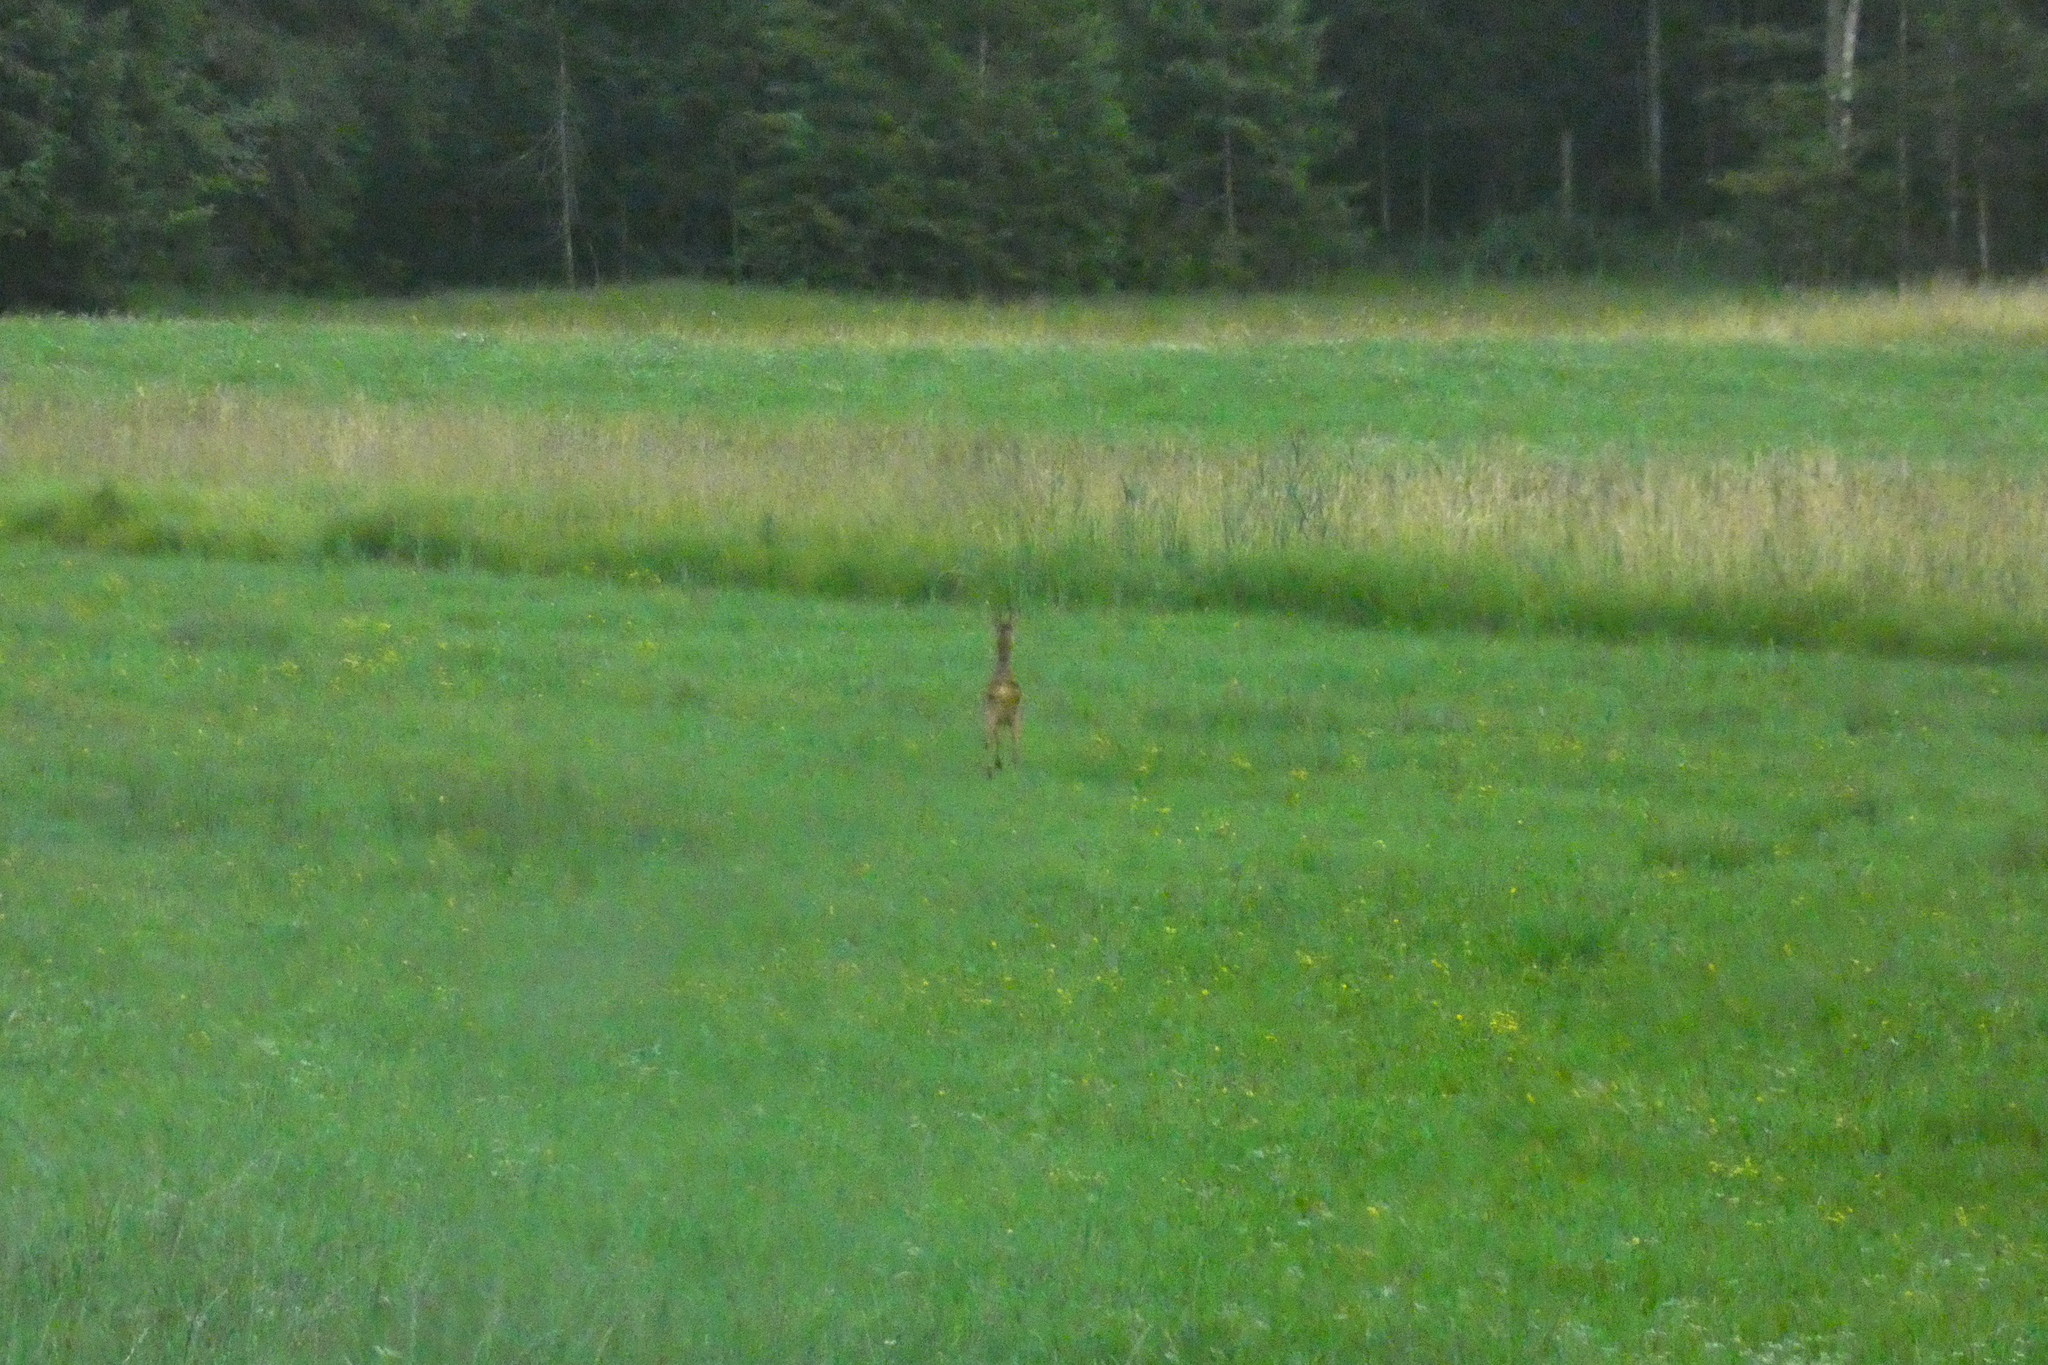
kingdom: Animalia
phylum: Chordata
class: Mammalia
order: Artiodactyla
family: Cervidae
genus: Capreolus
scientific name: Capreolus capreolus
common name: Western roe deer
